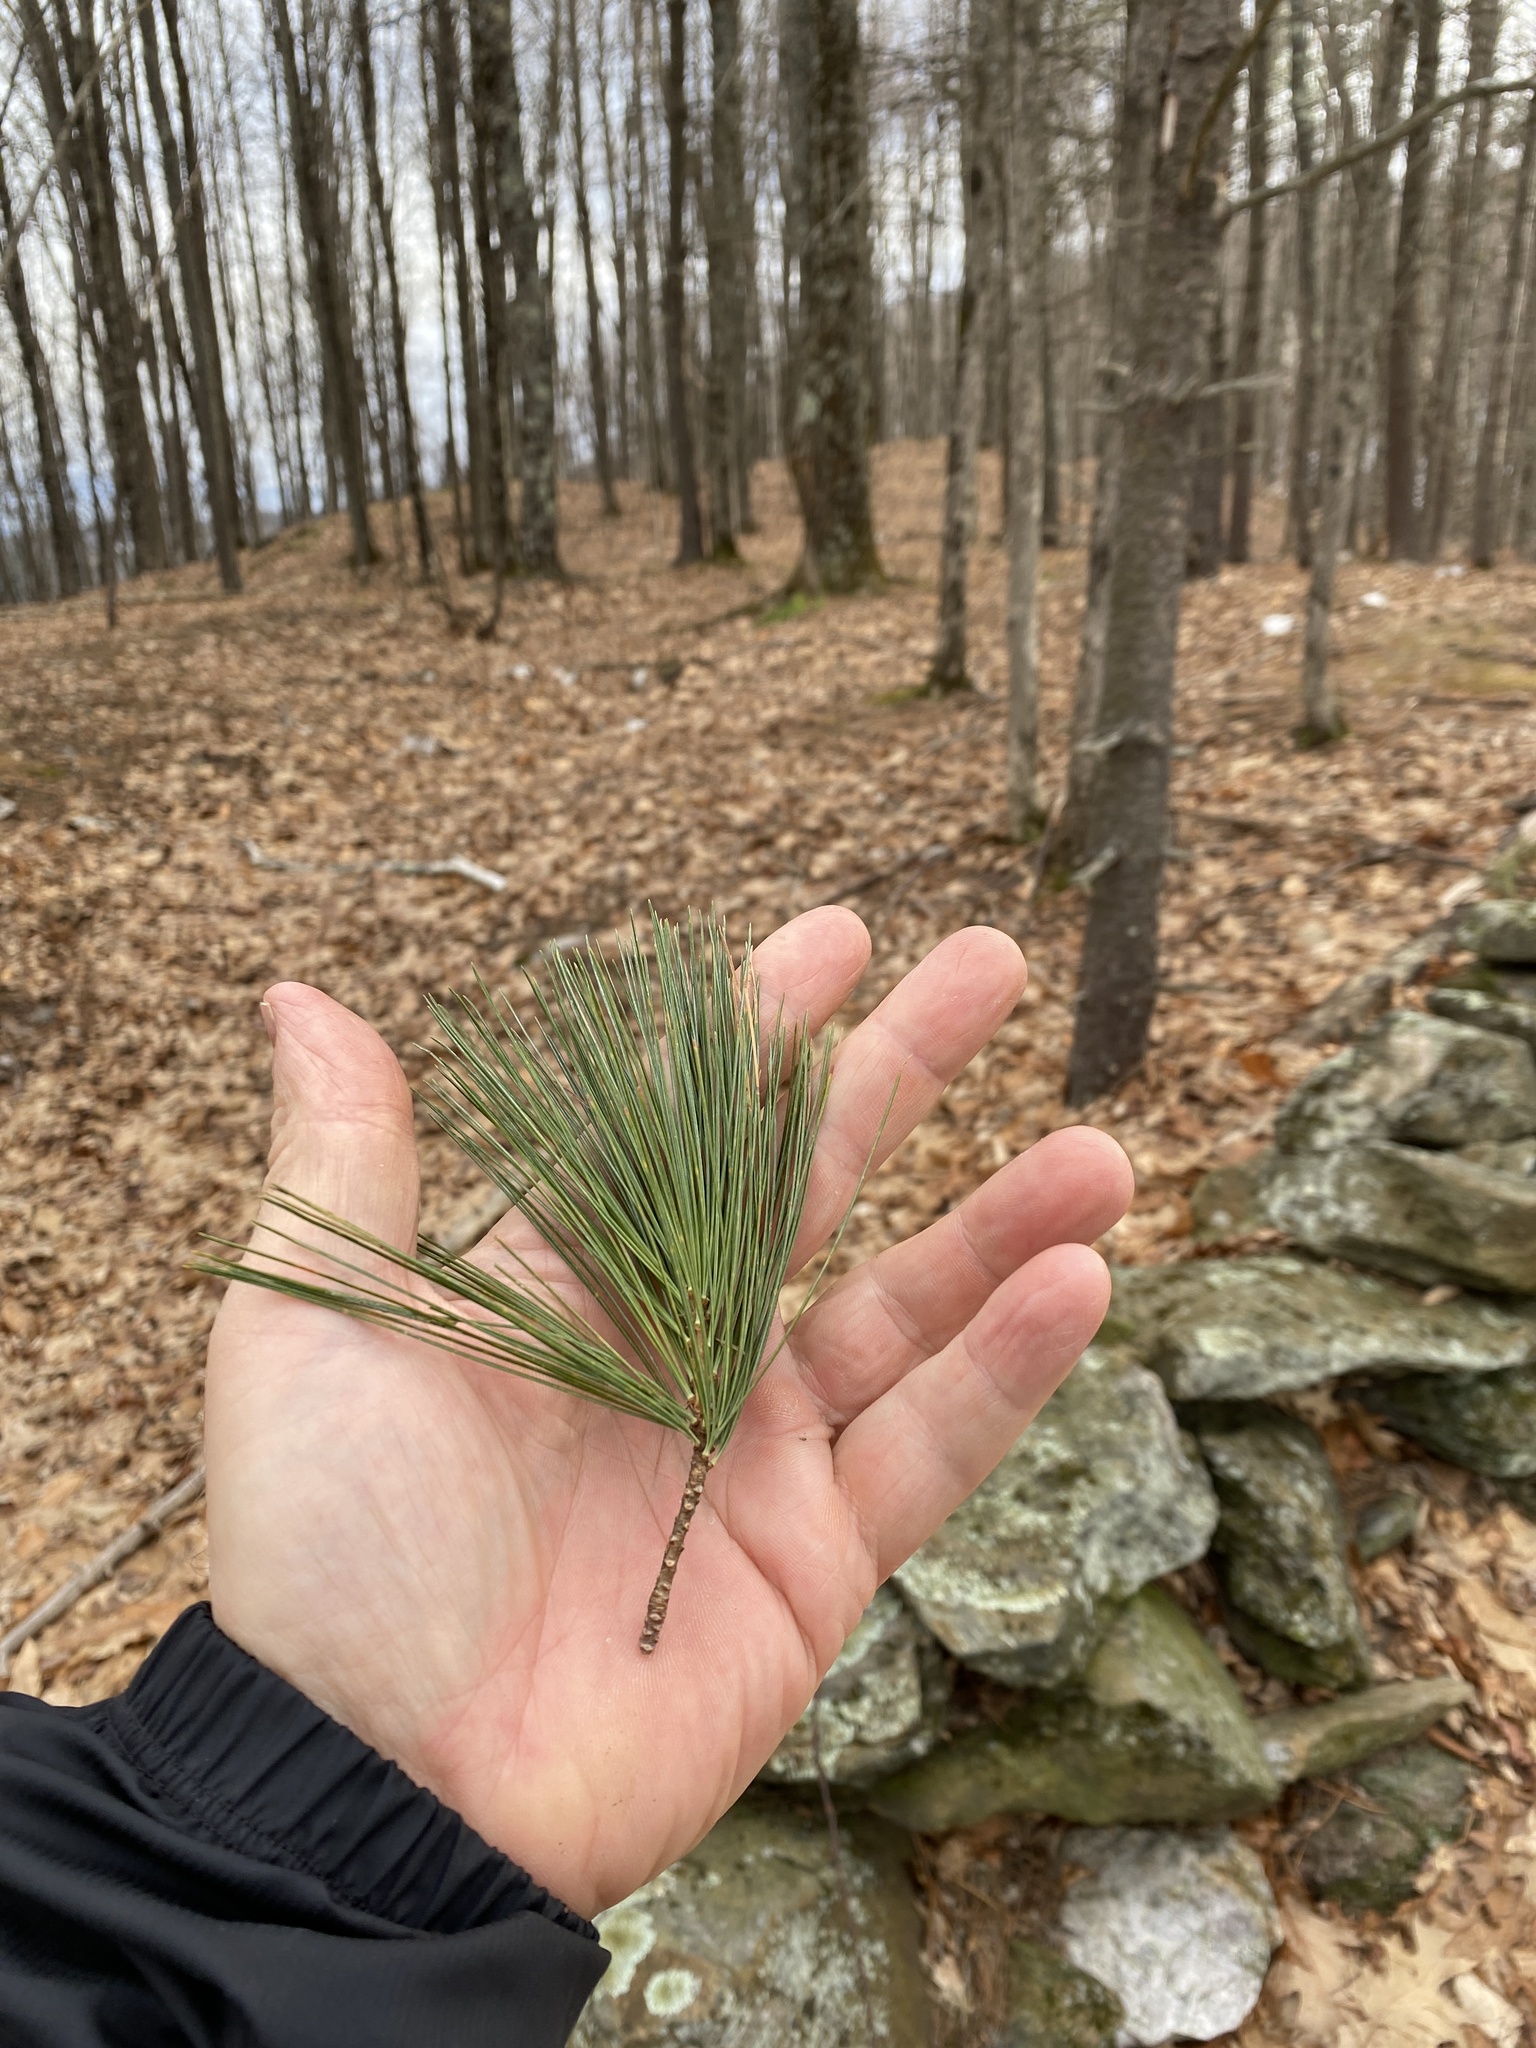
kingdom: Plantae
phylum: Tracheophyta
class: Pinopsida
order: Pinales
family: Pinaceae
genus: Pinus
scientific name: Pinus strobus
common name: Weymouth pine
